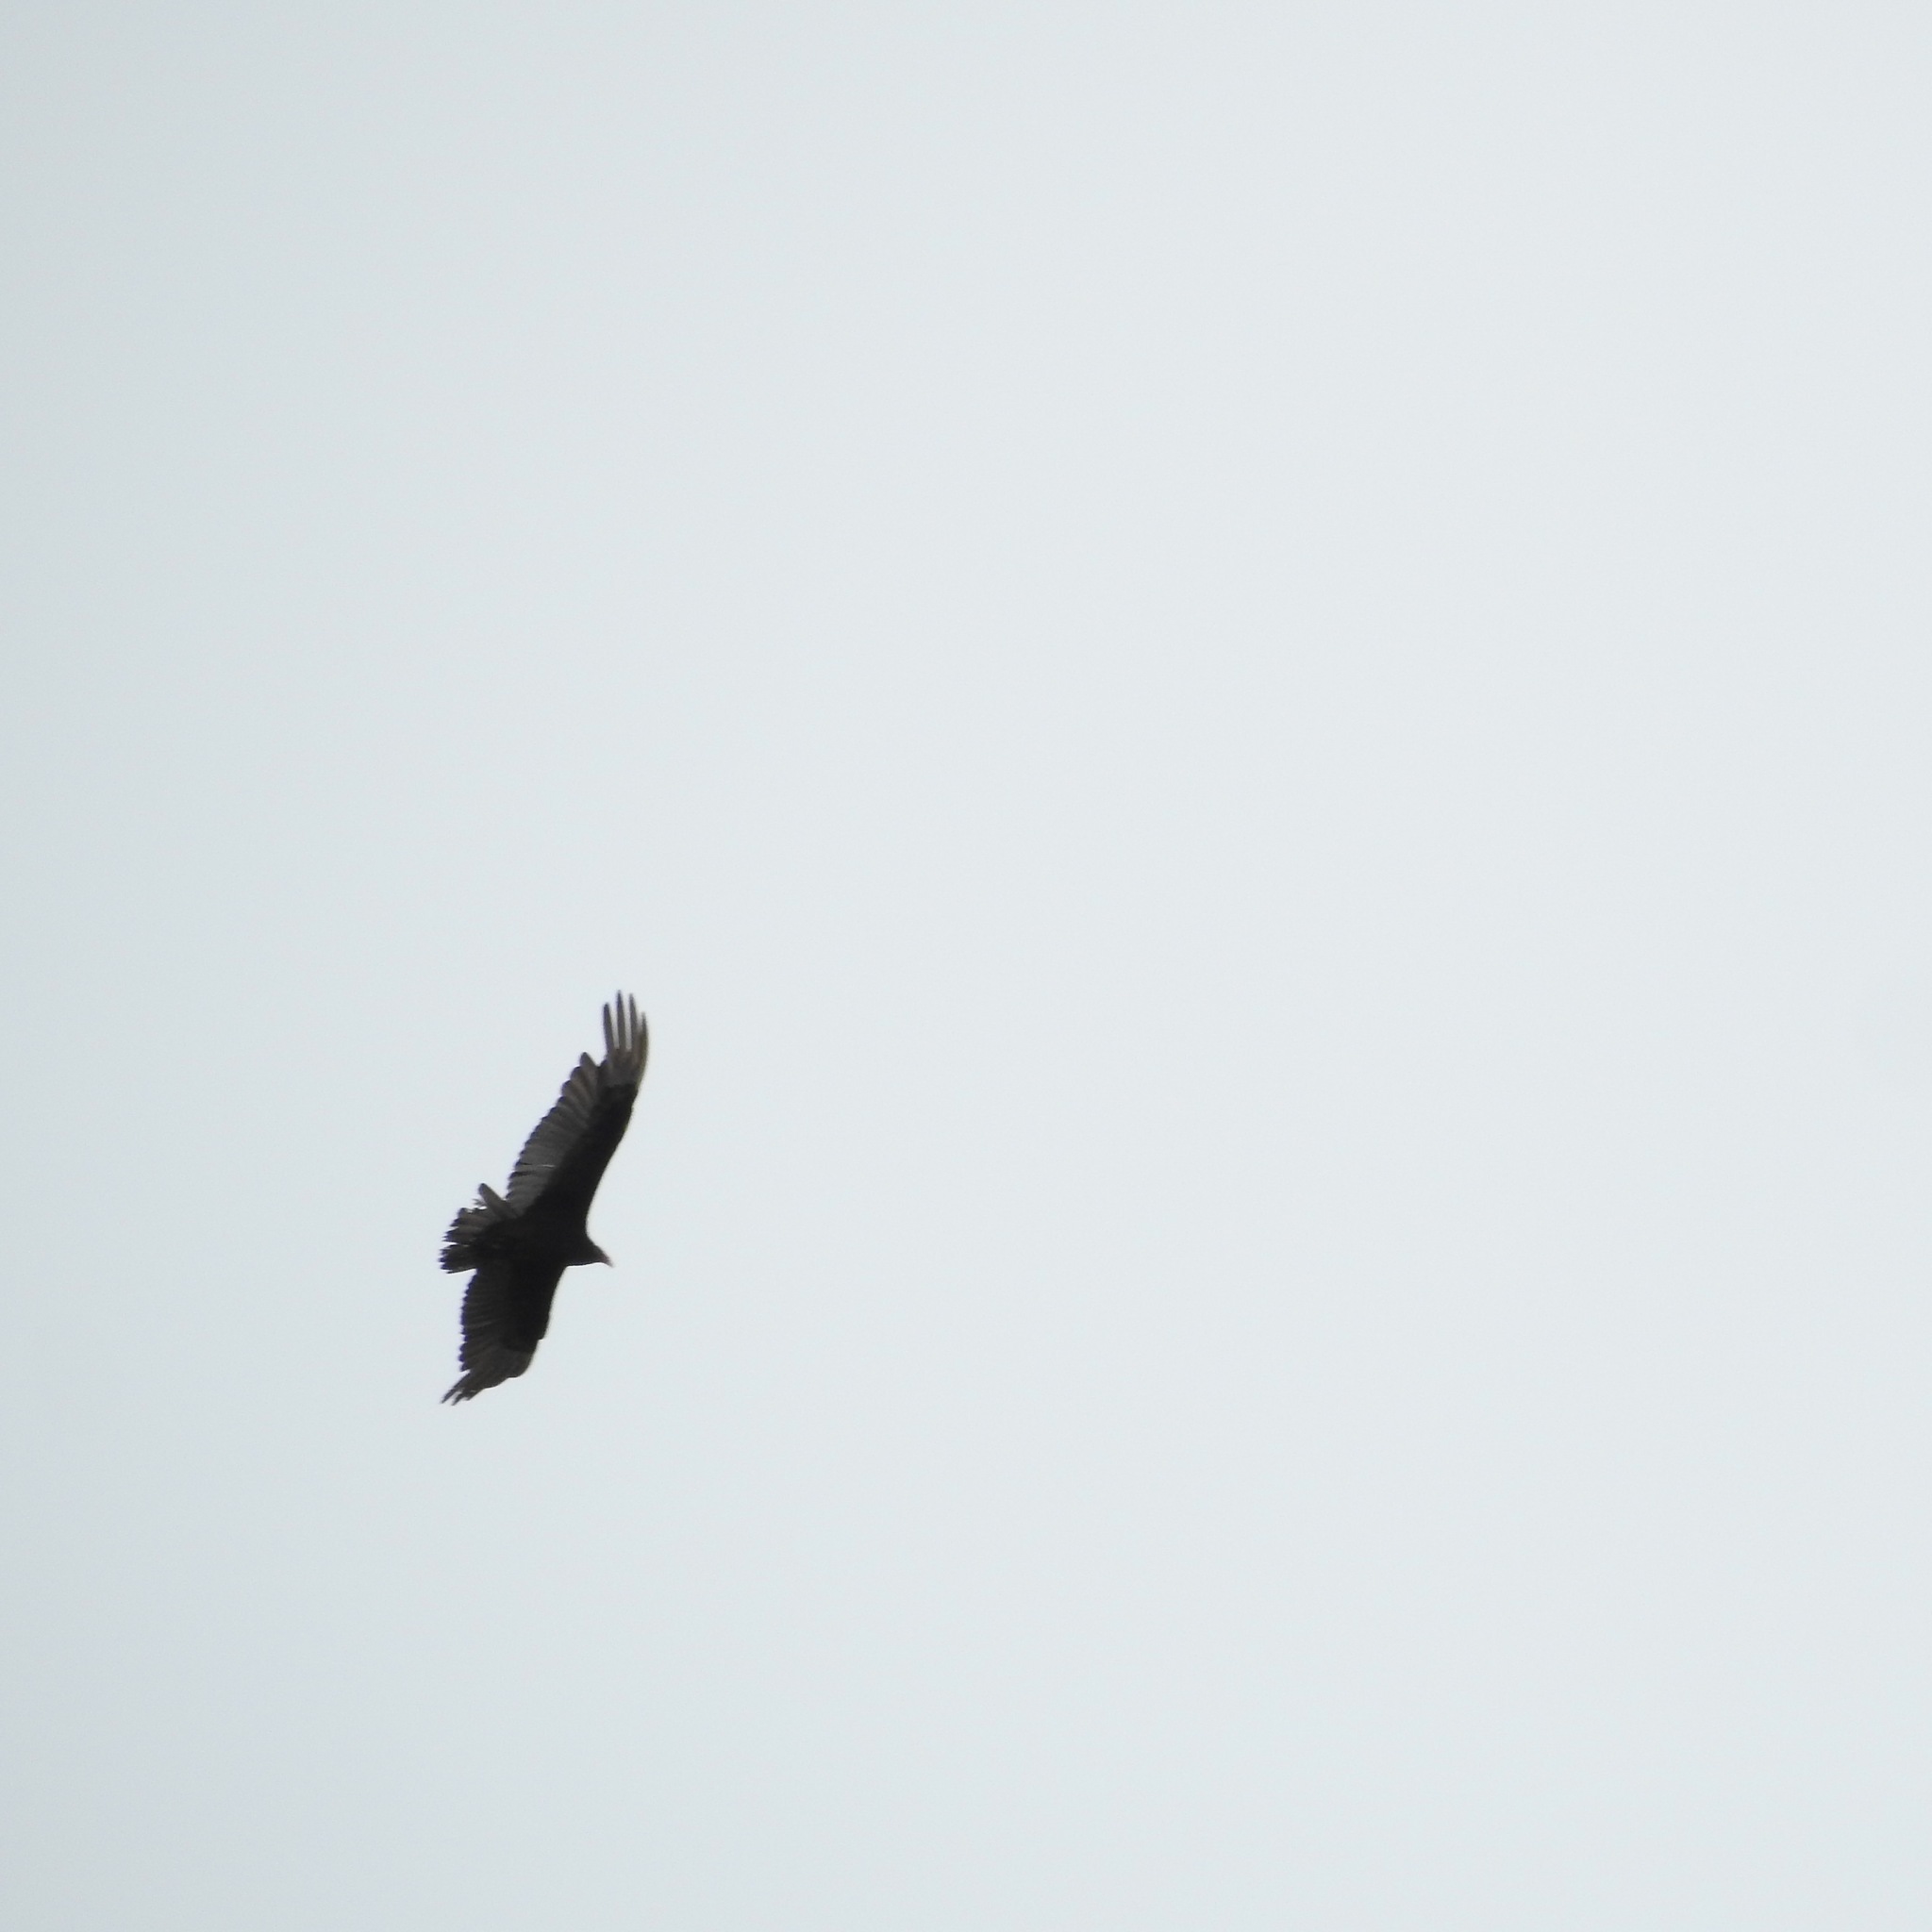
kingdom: Animalia
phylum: Chordata
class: Aves
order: Accipitriformes
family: Cathartidae
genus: Cathartes
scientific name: Cathartes aura
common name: Turkey vulture
